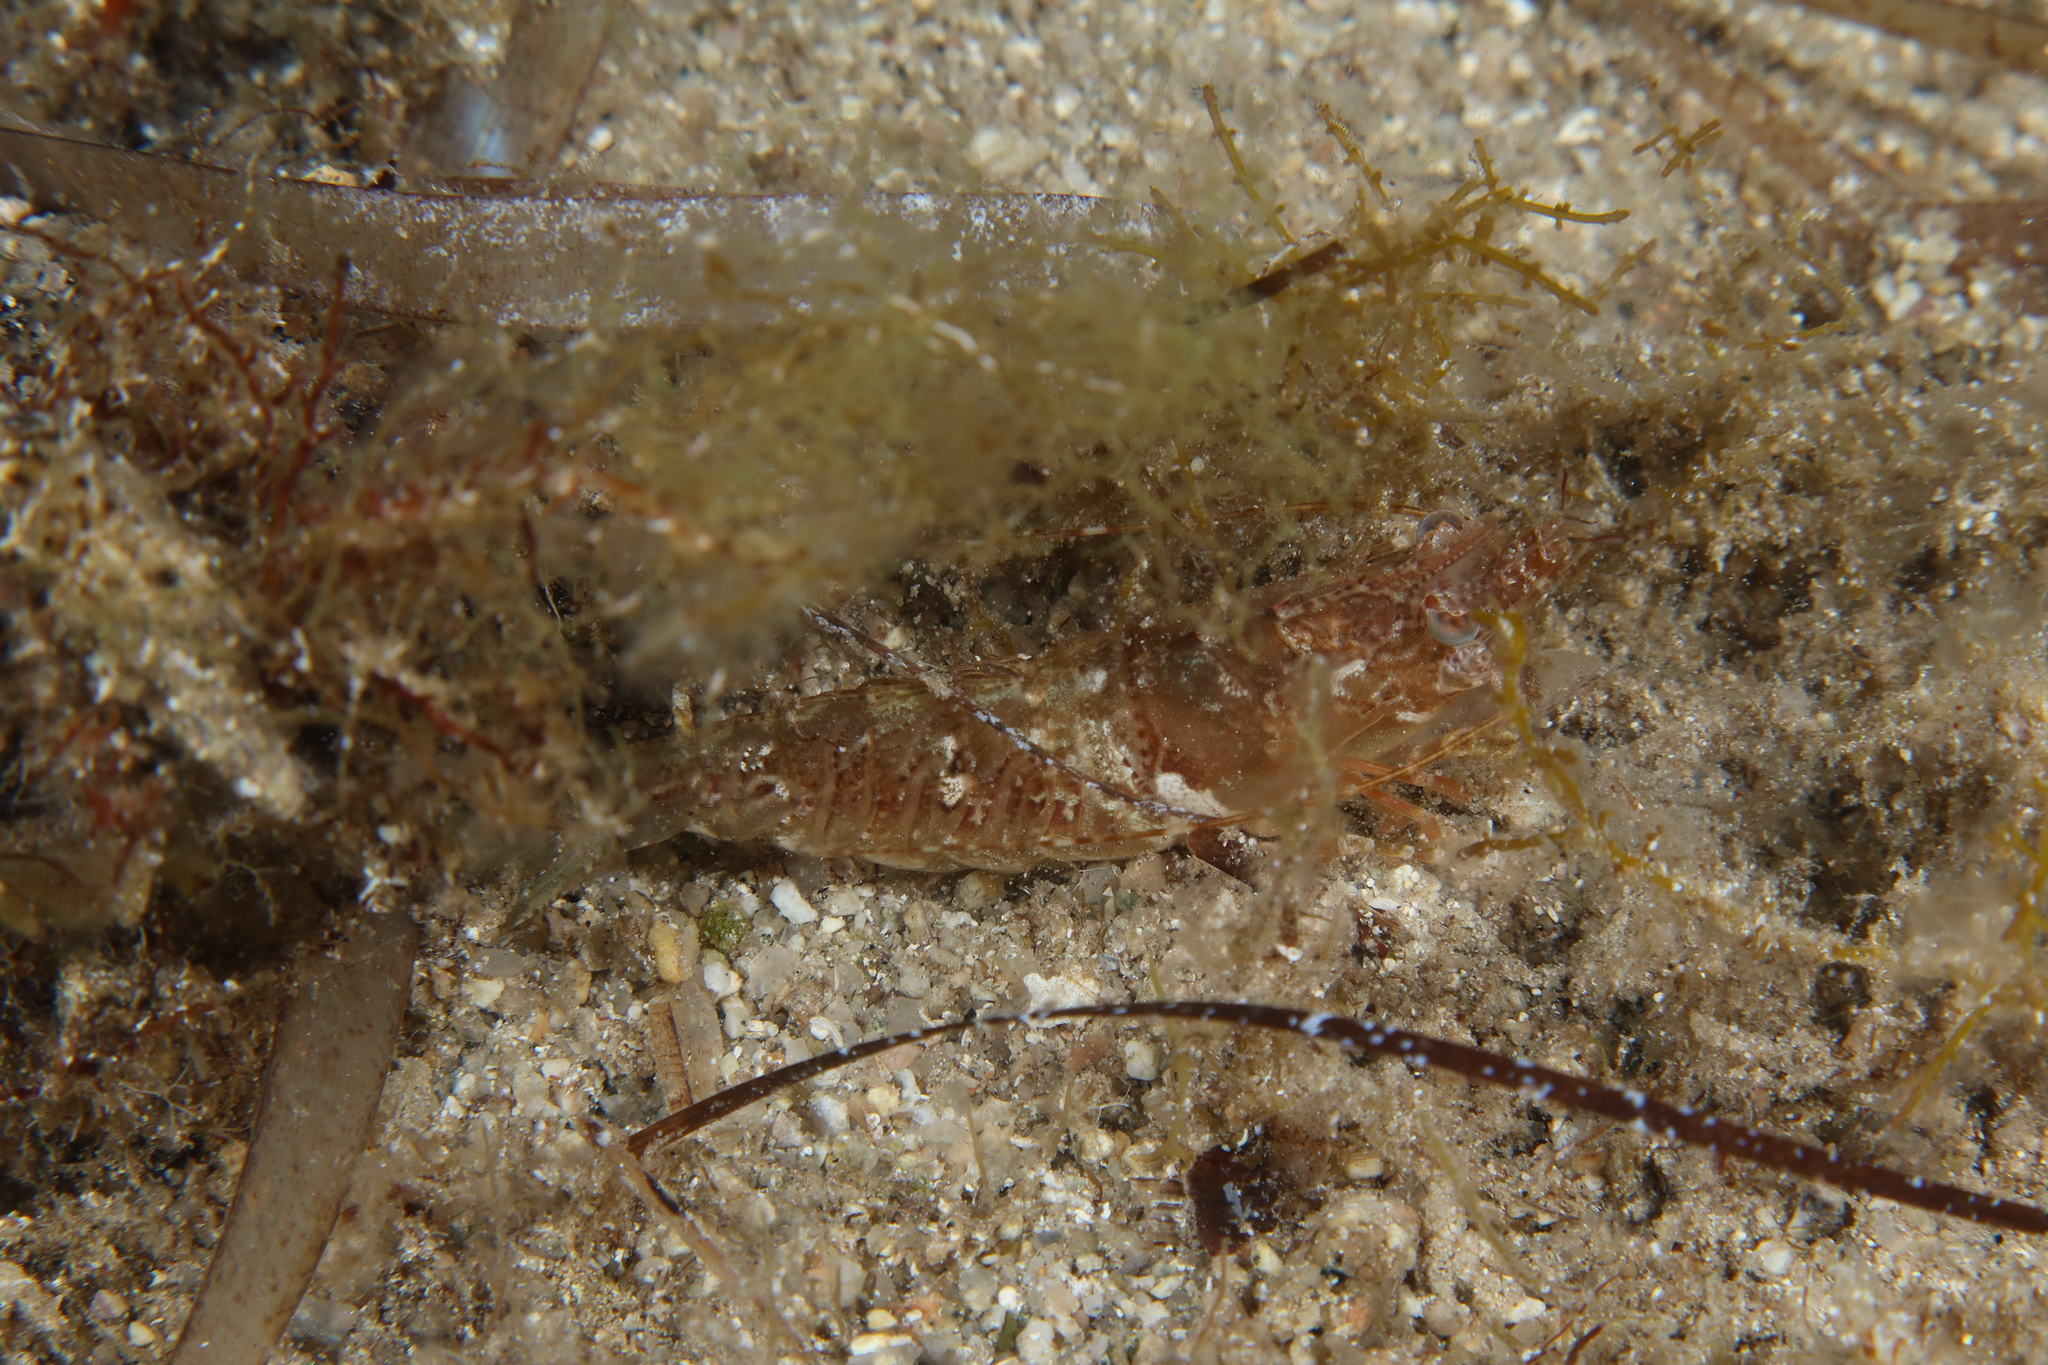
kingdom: Animalia
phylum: Arthropoda
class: Malacostraca
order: Decapoda
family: Sicyoniidae
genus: Sicyonia
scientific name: Sicyonia carinata
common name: Mediterranean rock shrimp
